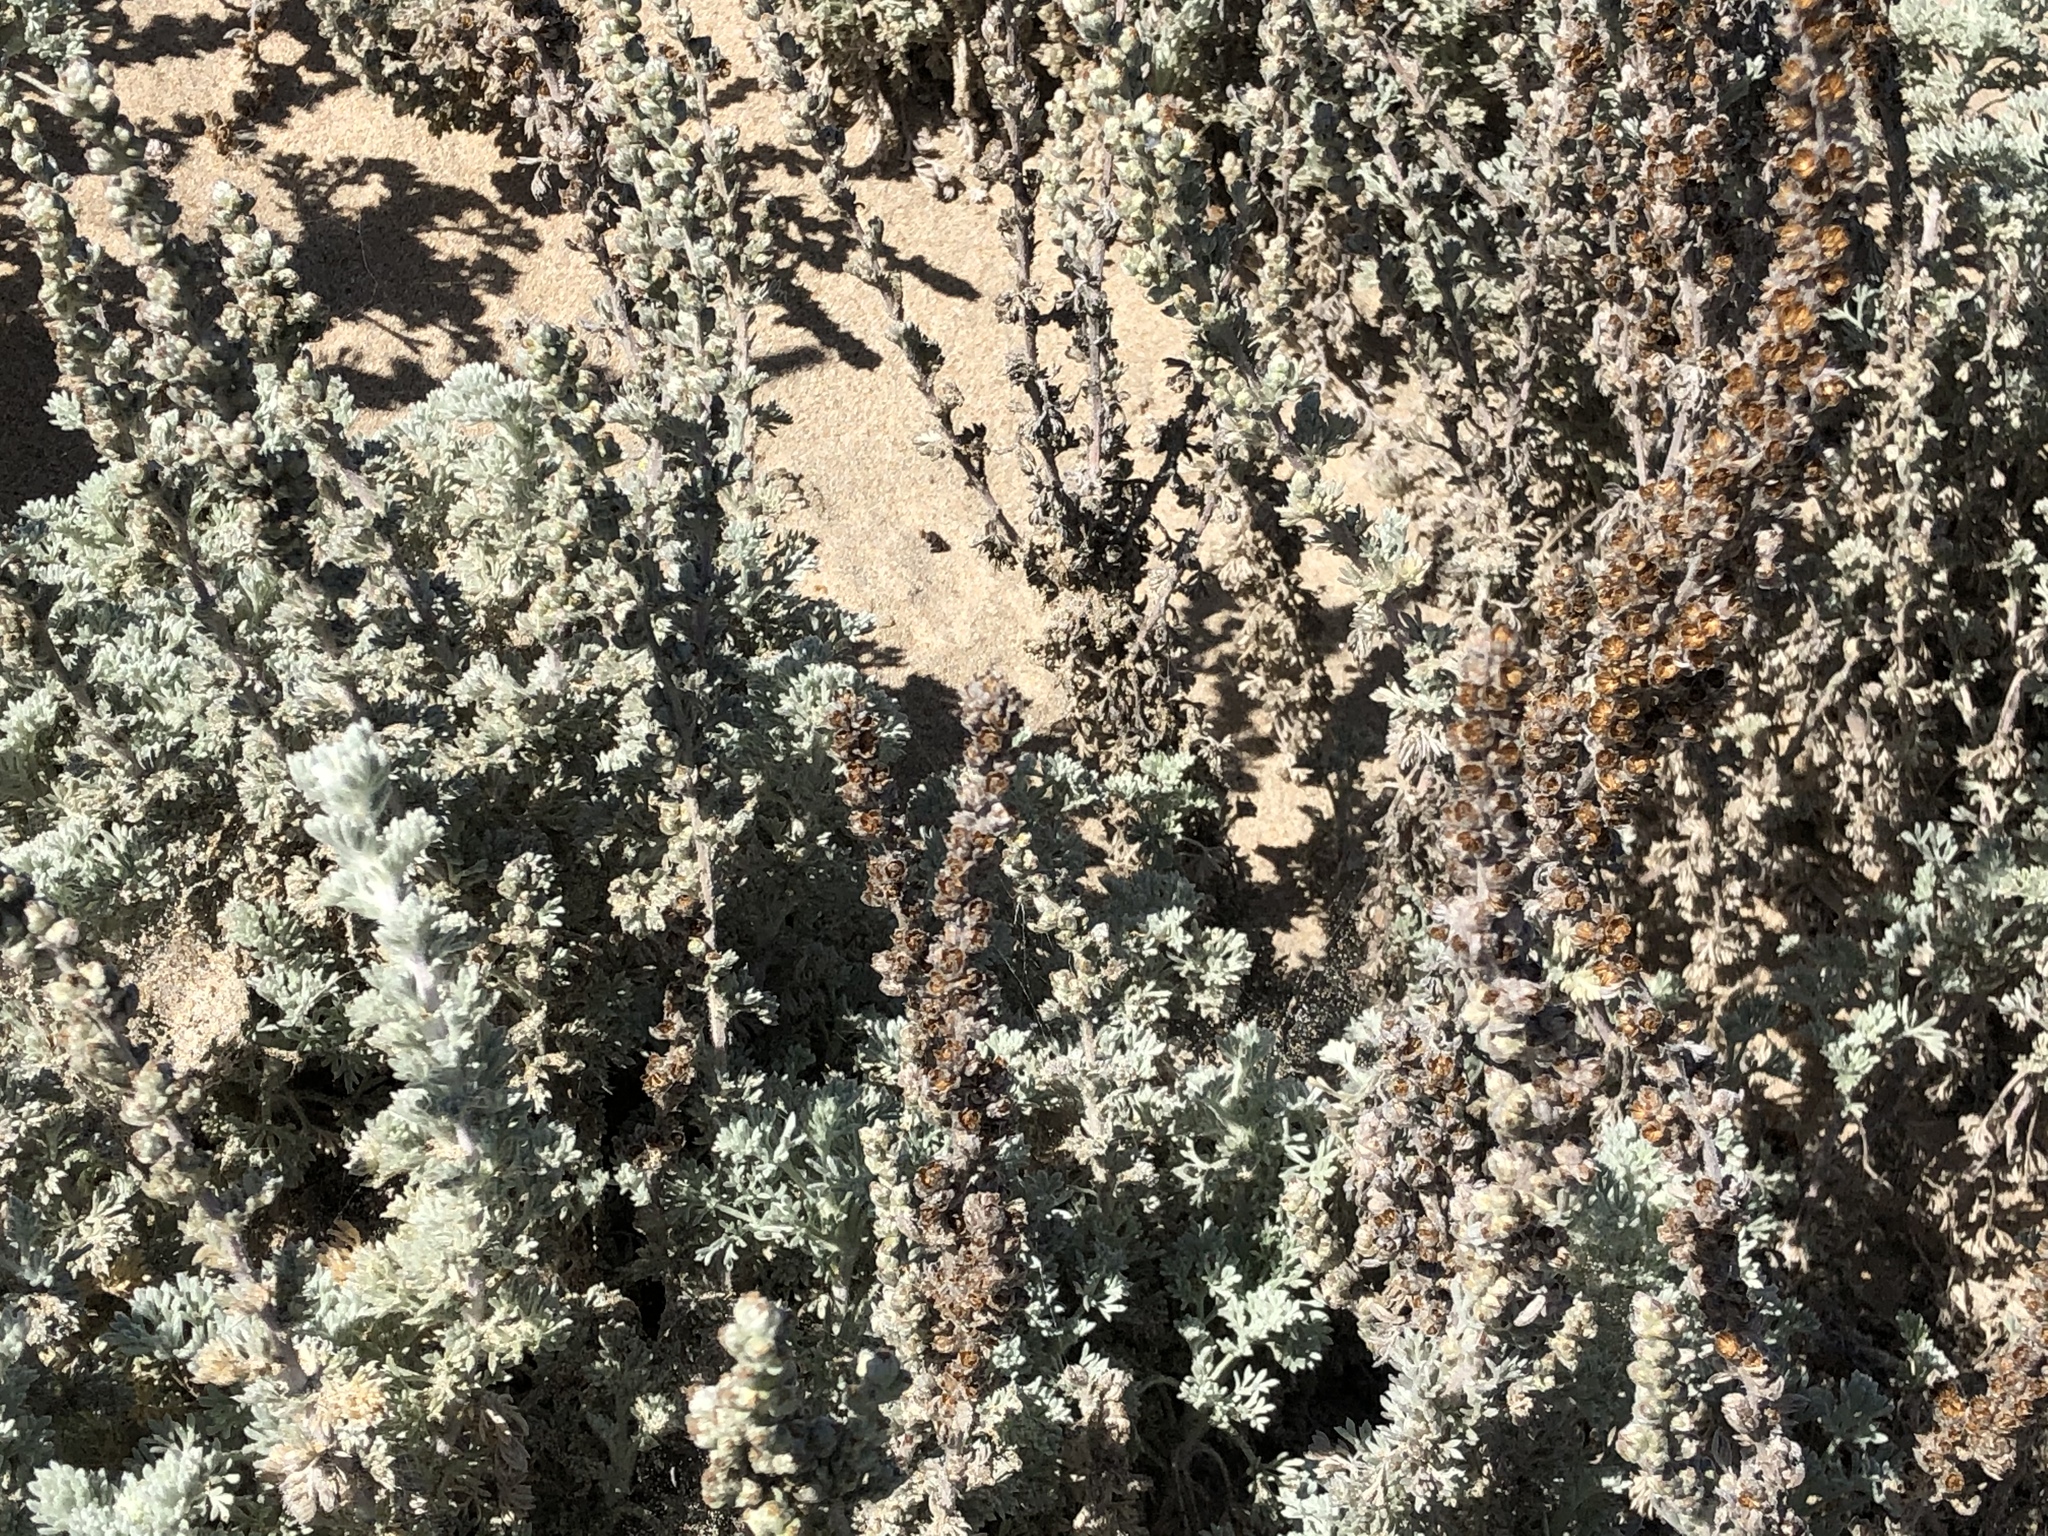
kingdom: Plantae
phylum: Tracheophyta
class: Magnoliopsida
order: Asterales
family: Asteraceae
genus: Artemisia
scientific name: Artemisia pycnocephala
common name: Coastal sagewort
